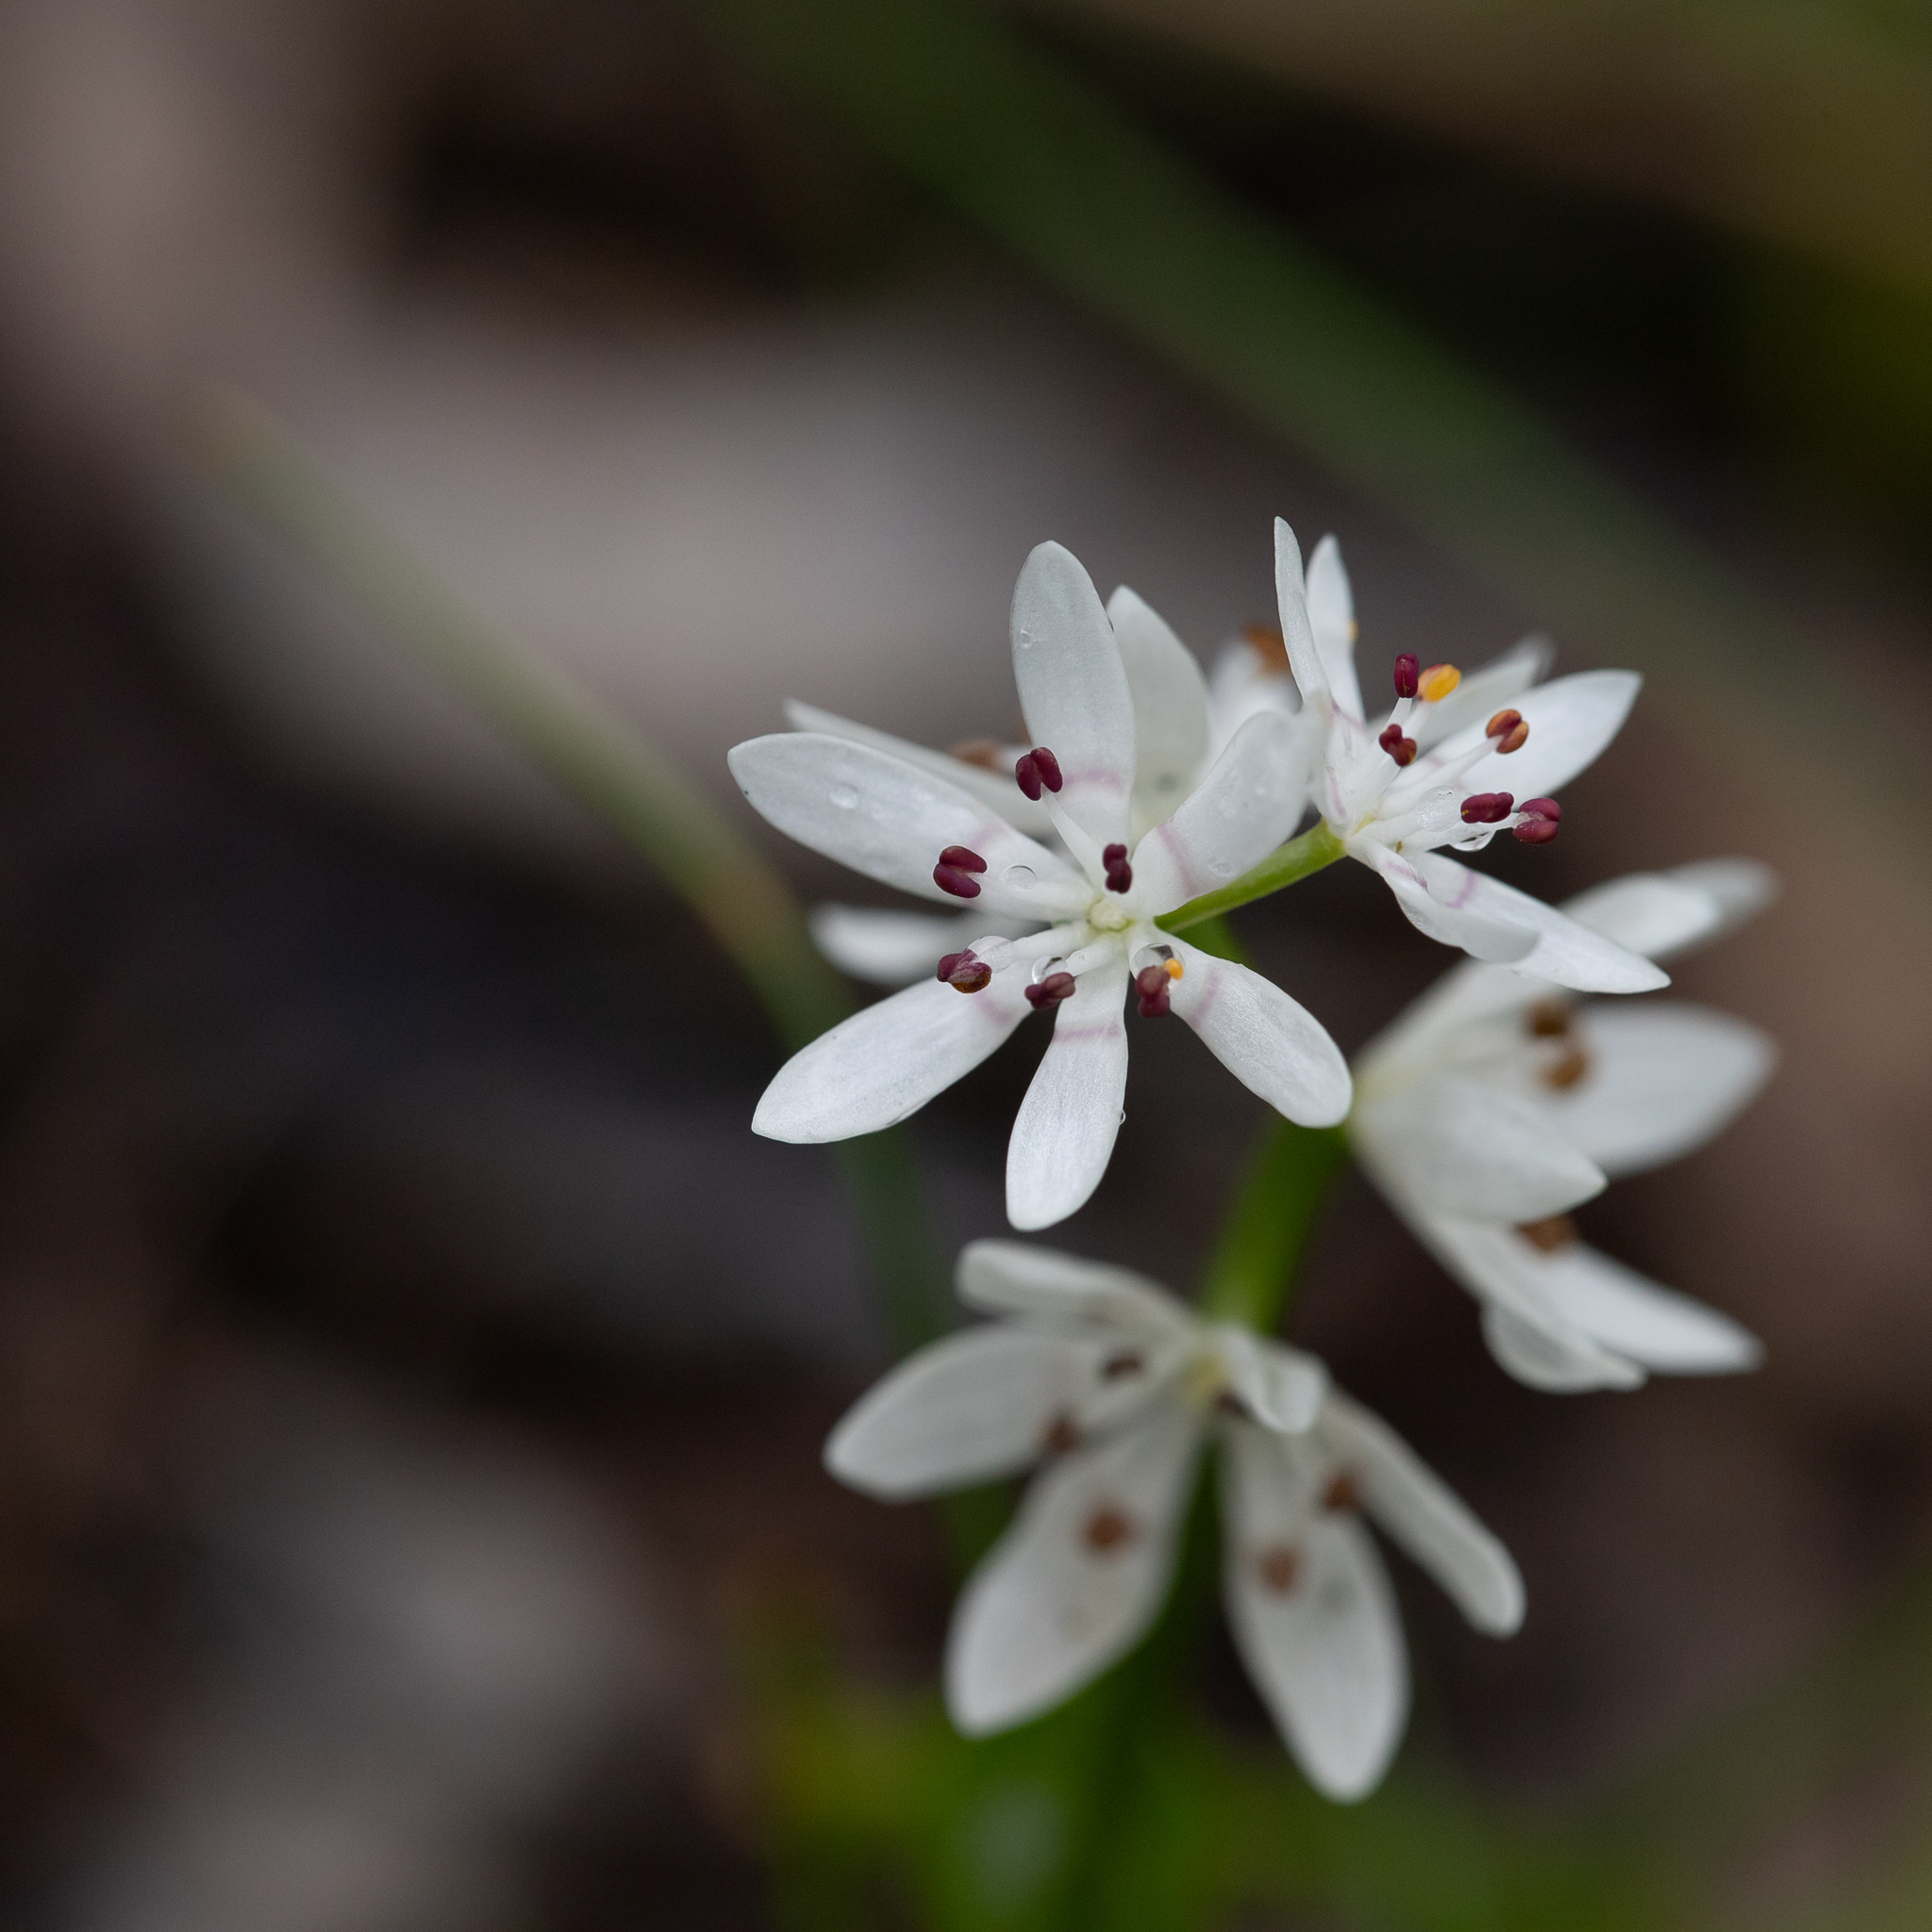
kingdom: Plantae
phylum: Tracheophyta
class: Liliopsida
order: Liliales
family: Colchicaceae
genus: Wurmbea
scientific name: Wurmbea dioica
